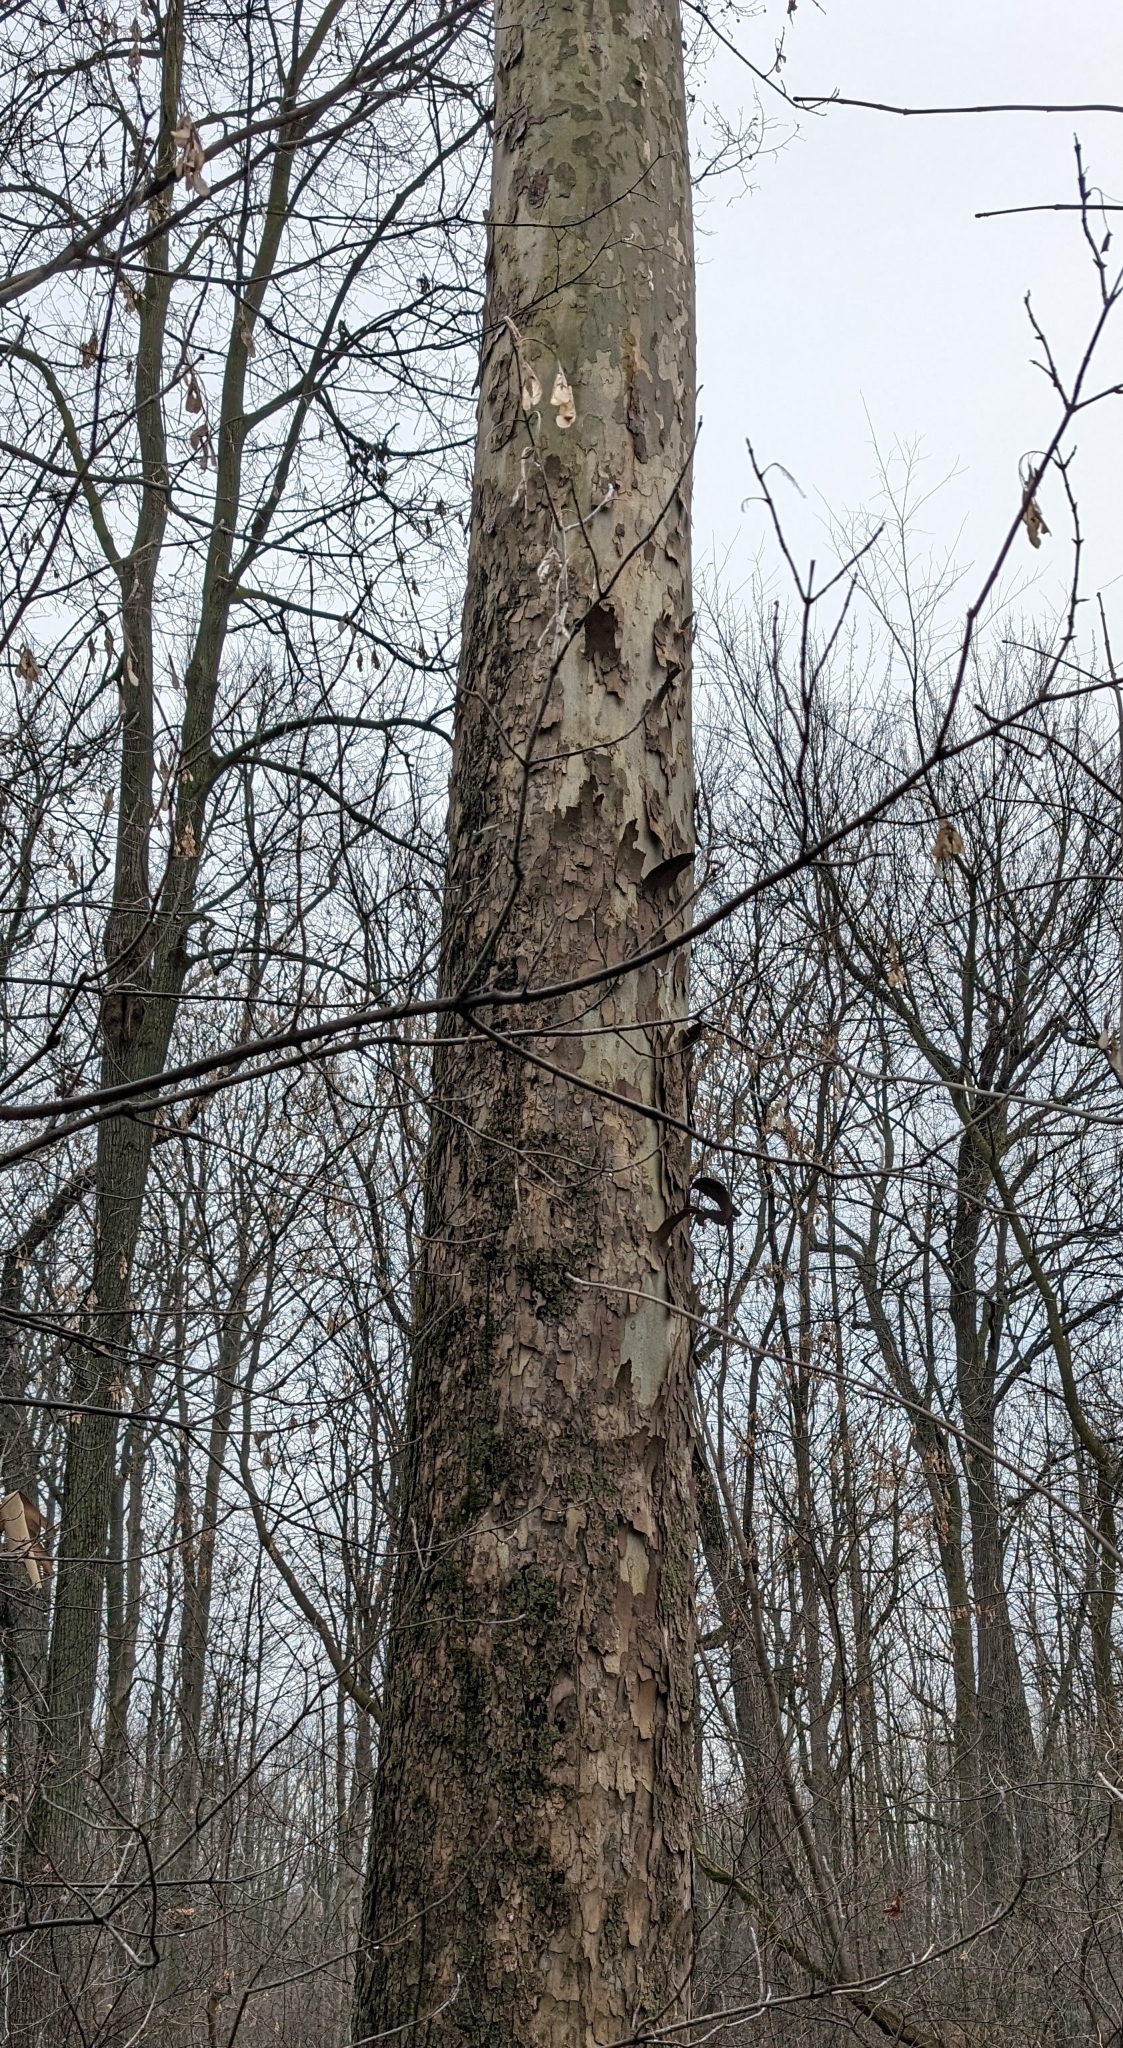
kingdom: Plantae
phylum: Tracheophyta
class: Magnoliopsida
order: Proteales
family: Platanaceae
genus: Platanus
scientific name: Platanus occidentalis
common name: American sycamore
